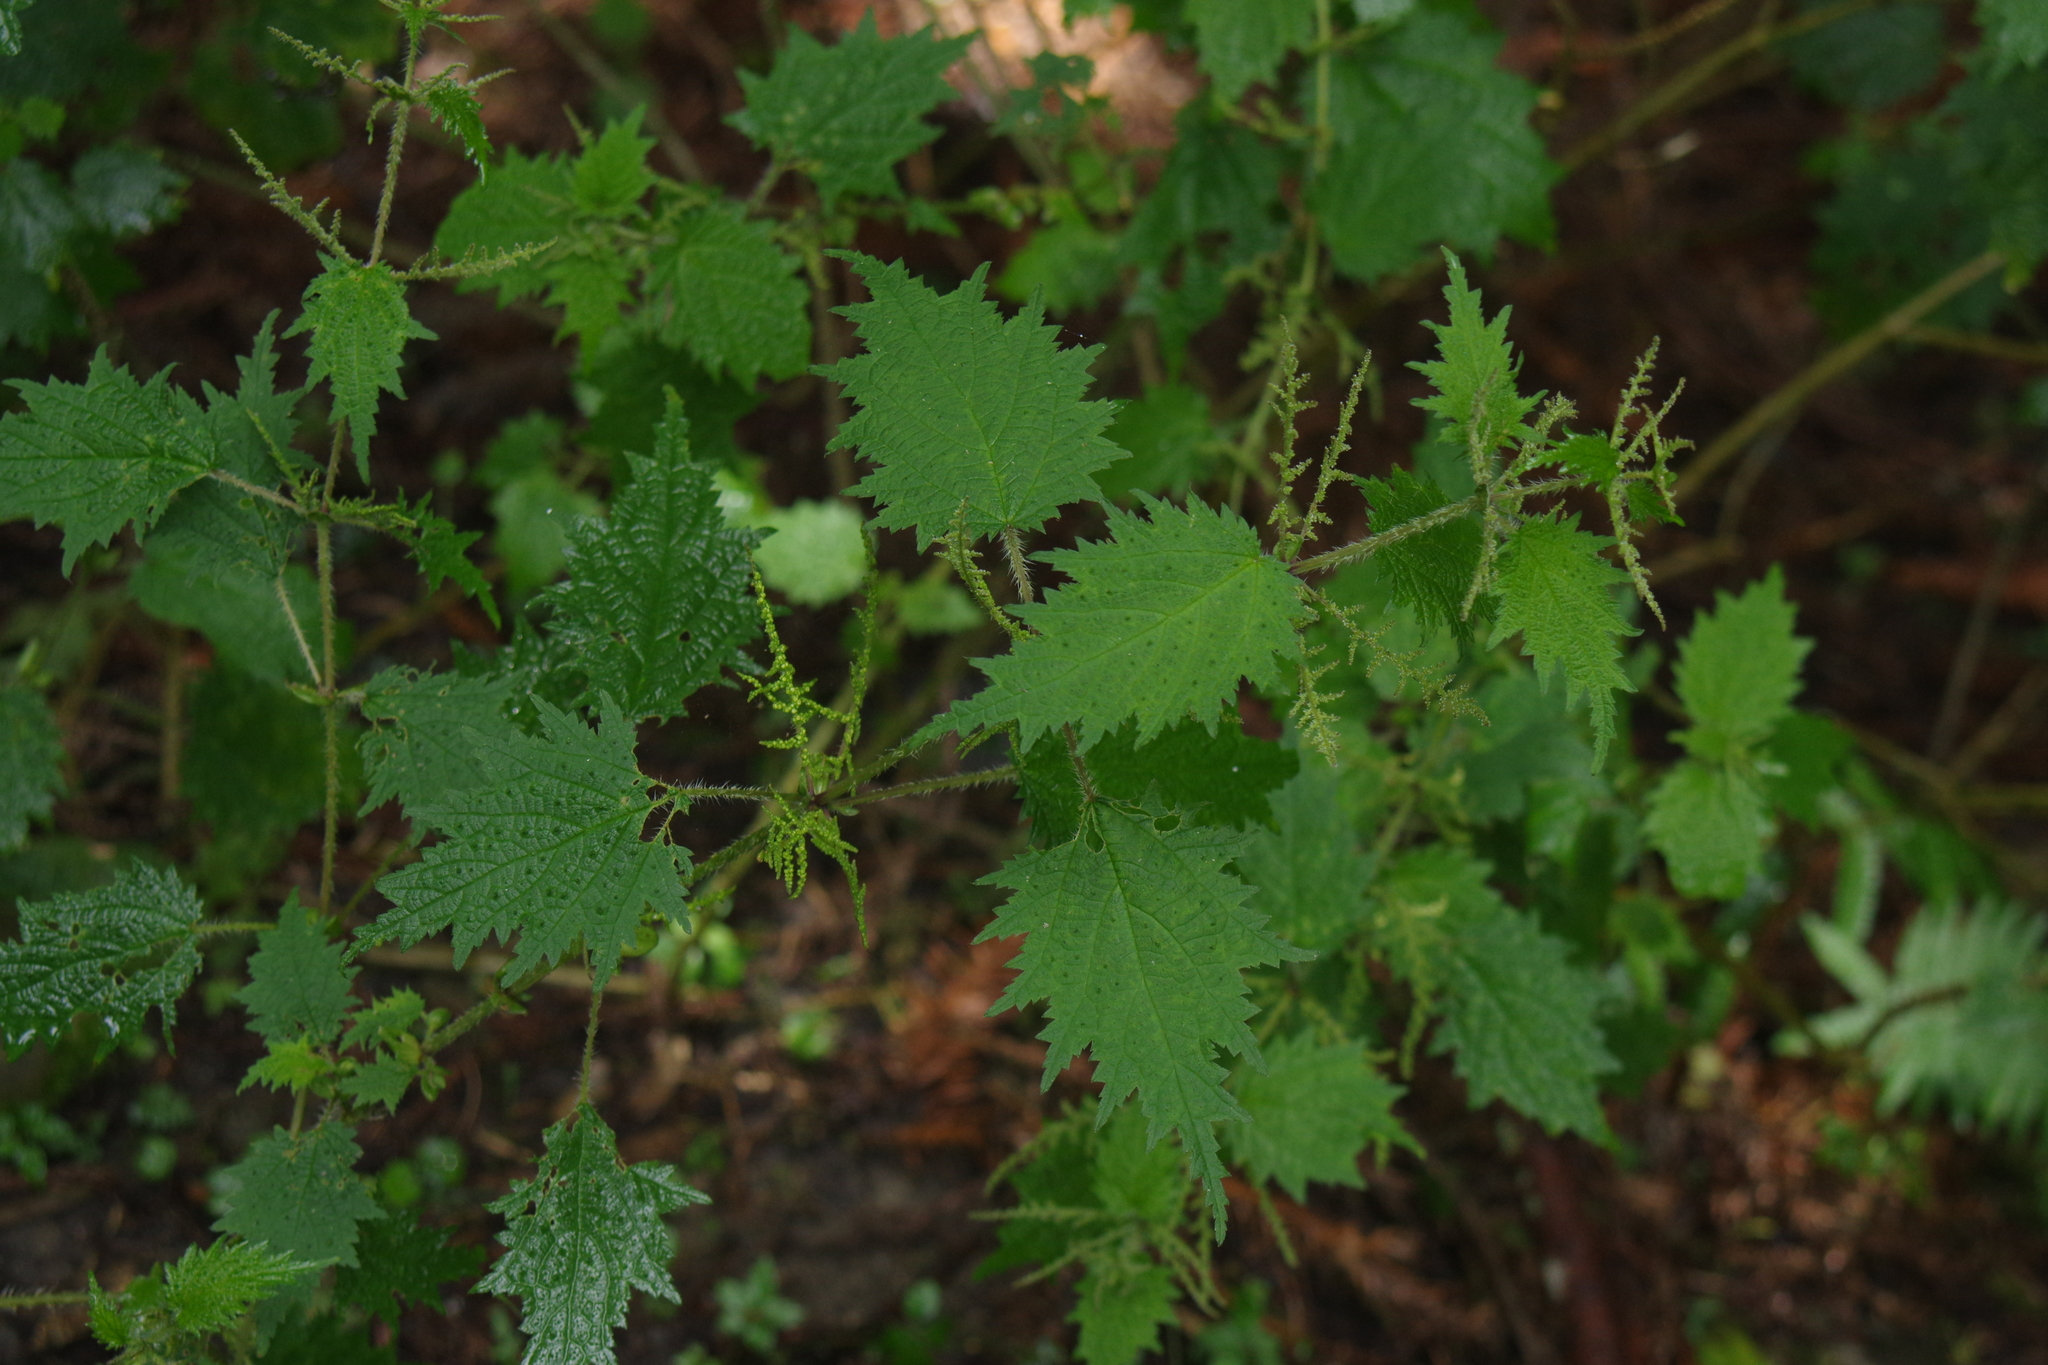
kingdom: Plantae
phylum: Tracheophyta
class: Magnoliopsida
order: Rosales
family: Urticaceae
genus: Urtica
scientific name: Urtica thunbergiana
